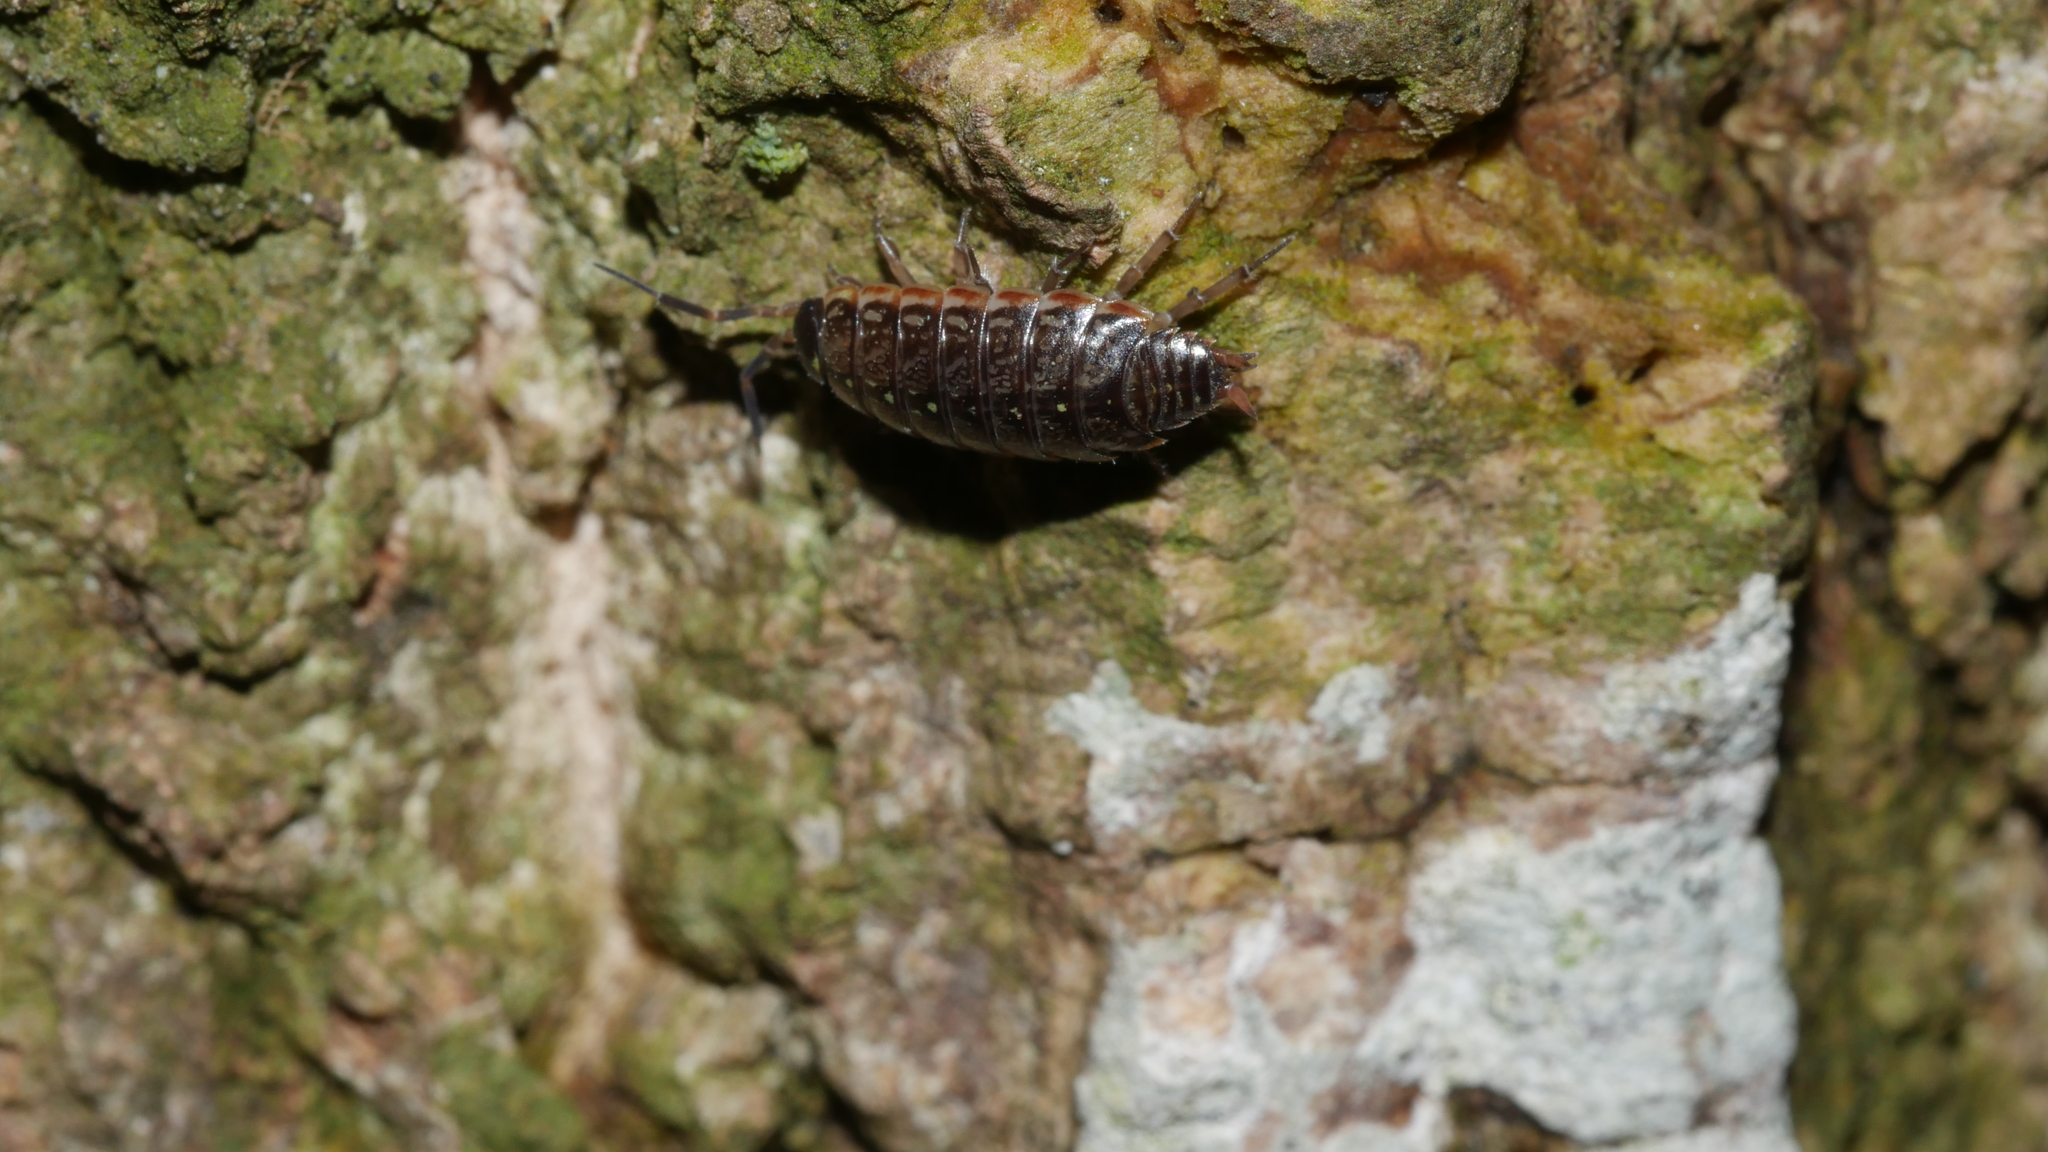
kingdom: Animalia
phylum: Arthropoda
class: Malacostraca
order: Isopoda
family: Philosciidae
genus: Philoscia
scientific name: Philoscia muscorum
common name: Common striped woodlouse
